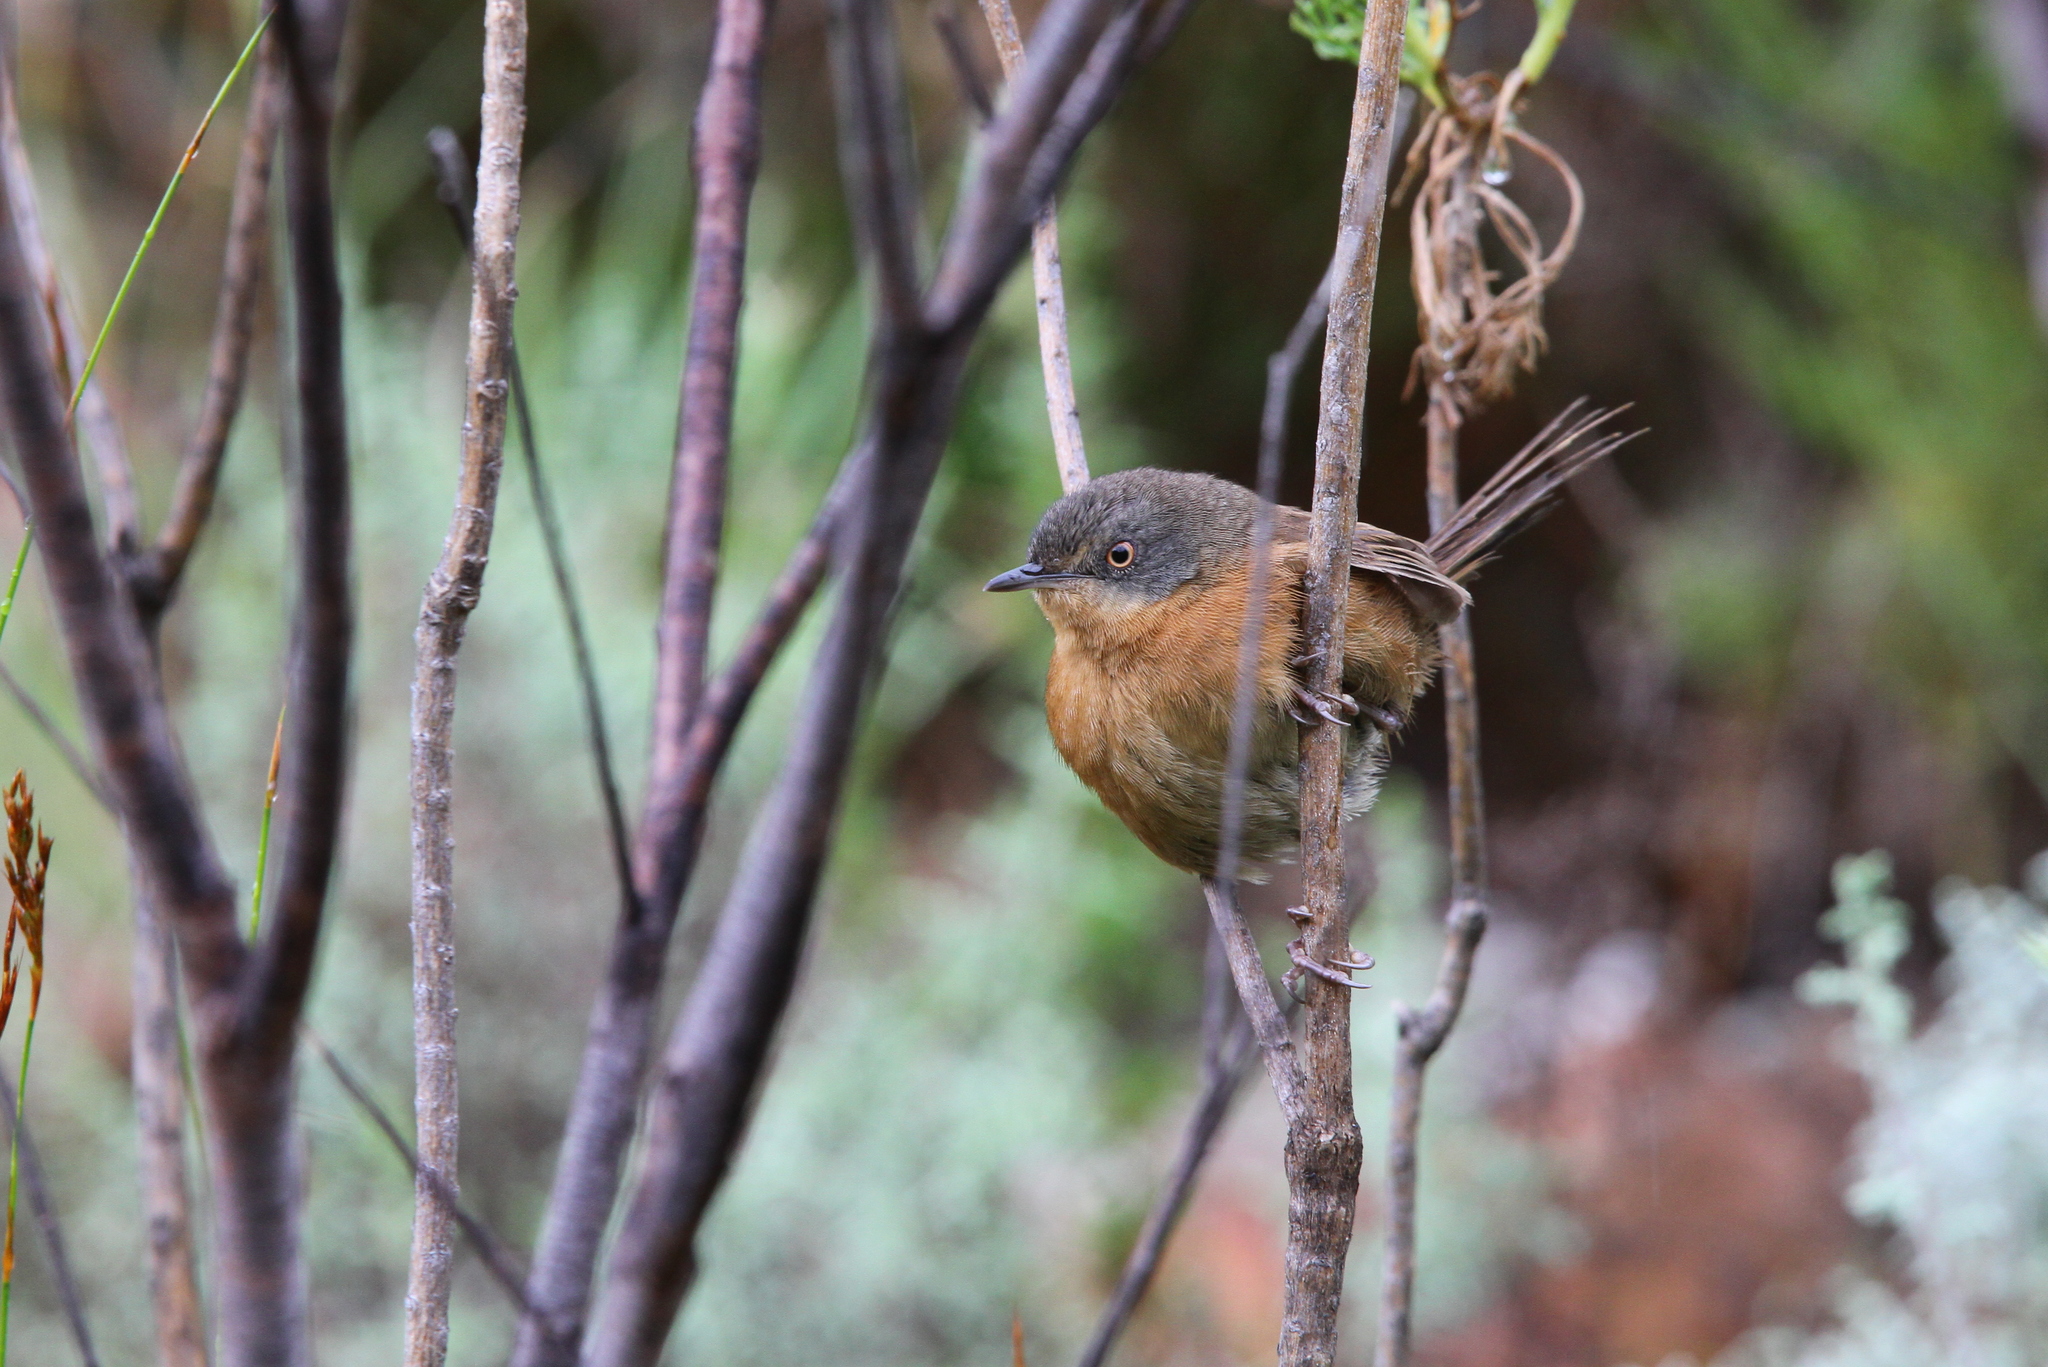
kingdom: Animalia
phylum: Chordata
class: Aves
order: Passeriformes
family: Macrosphenidae
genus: Cryptillas
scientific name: Cryptillas victorini
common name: Victorin's warbler
